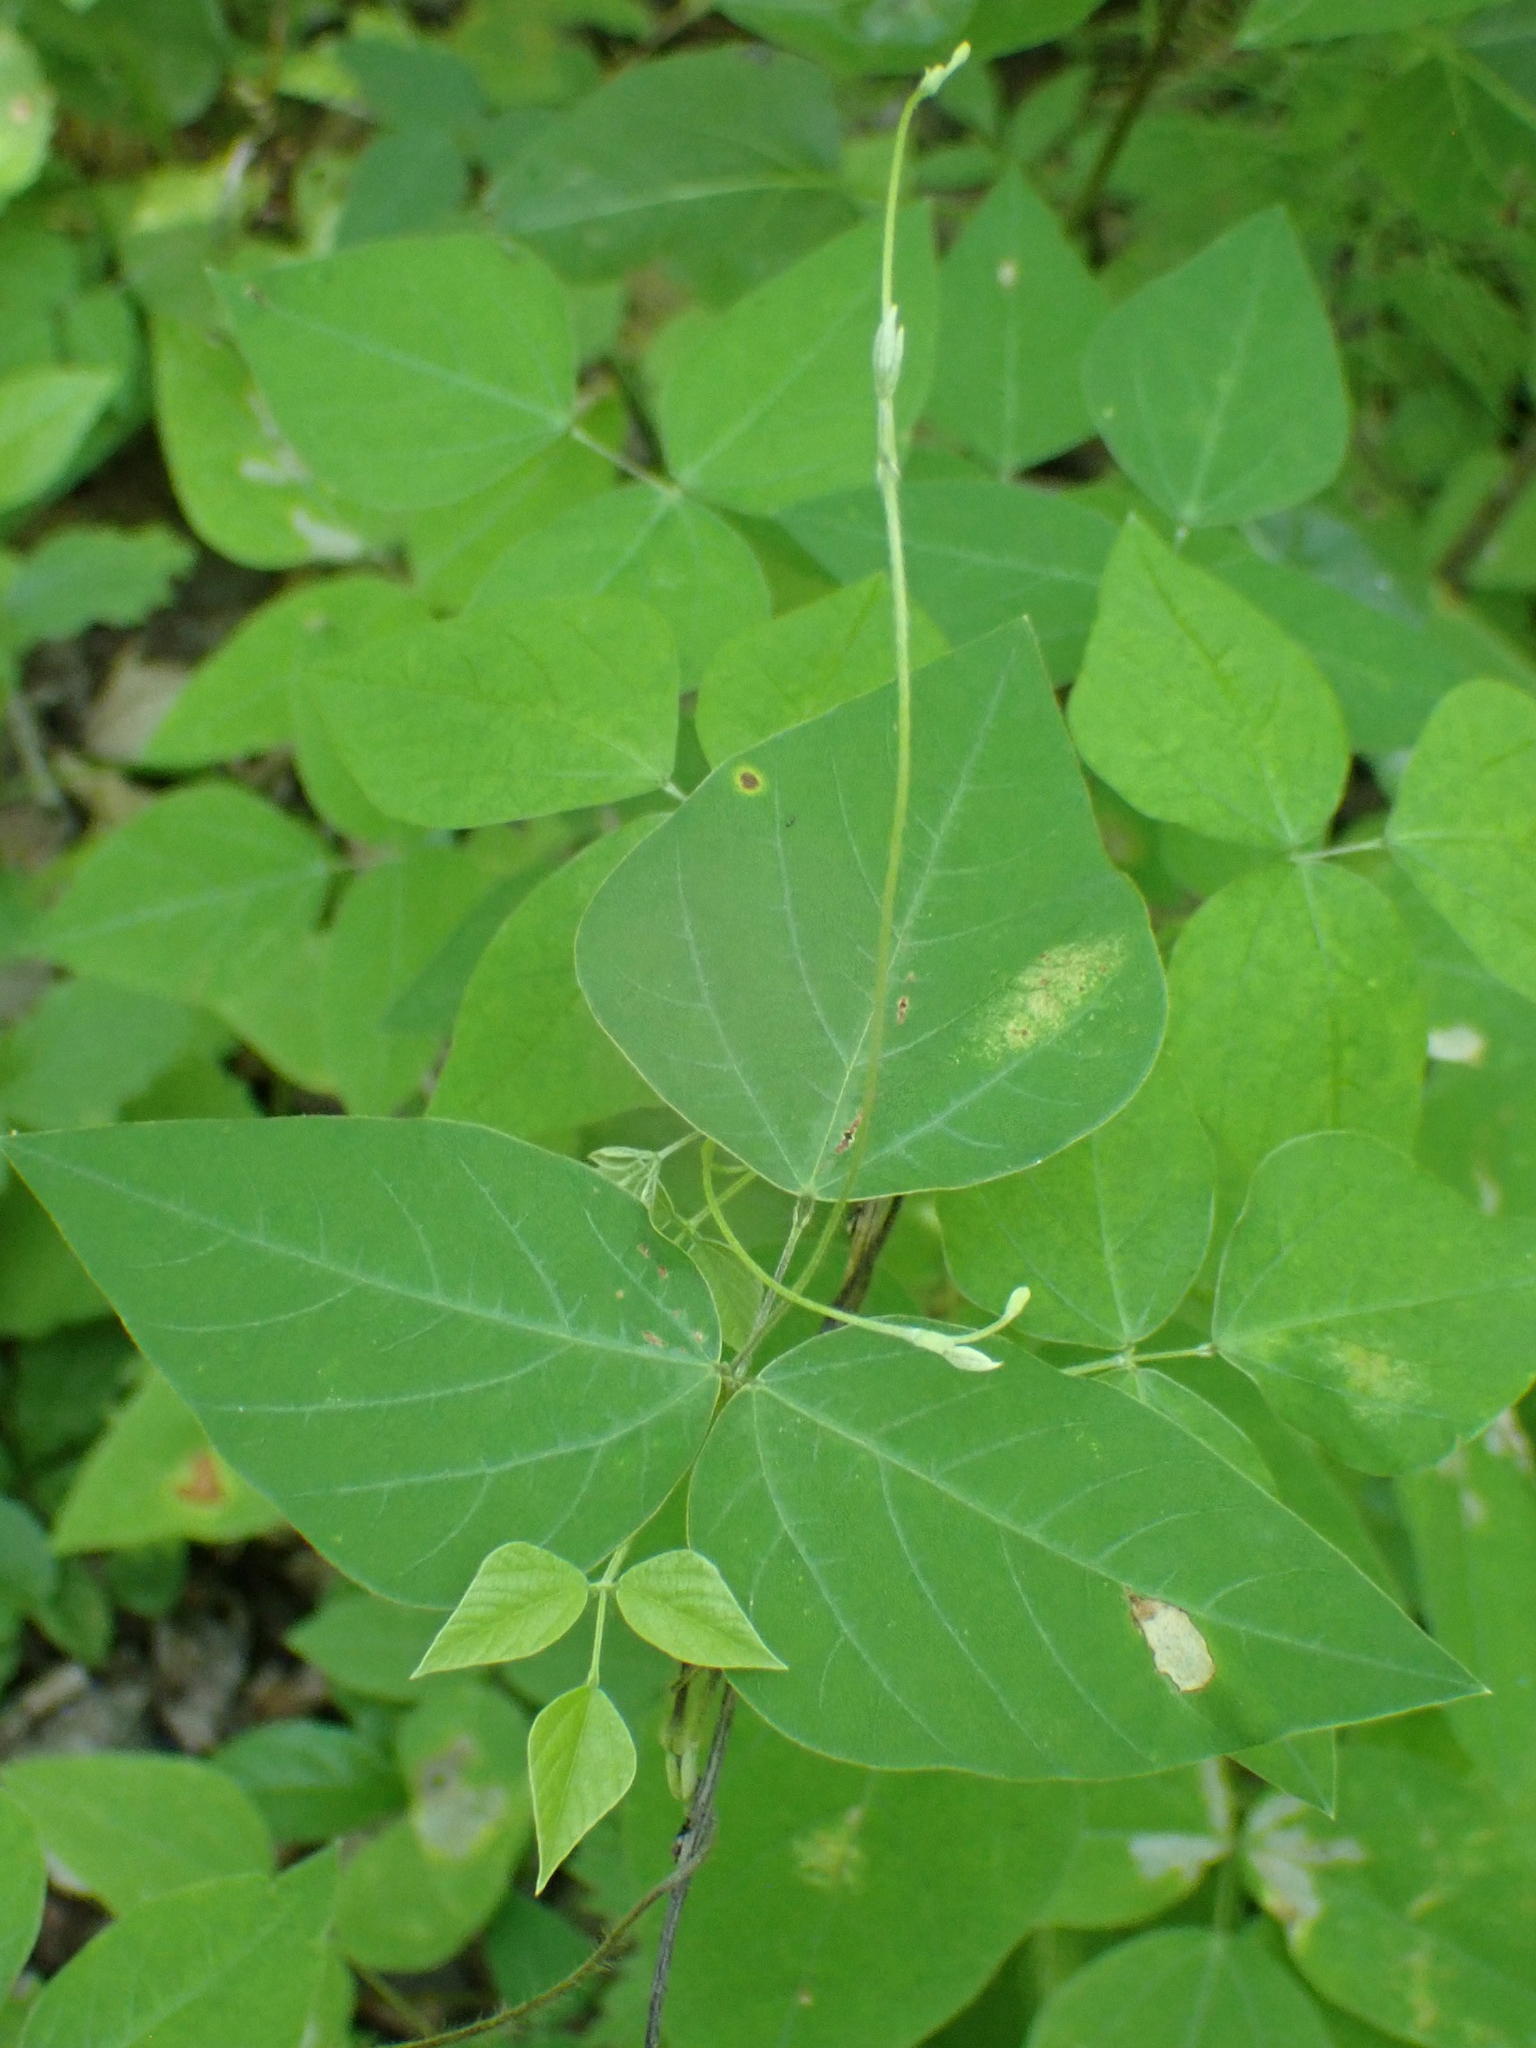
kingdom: Plantae
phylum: Tracheophyta
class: Magnoliopsida
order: Fabales
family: Fabaceae
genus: Amphicarpaea
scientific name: Amphicarpaea bracteata
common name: American hog peanut
